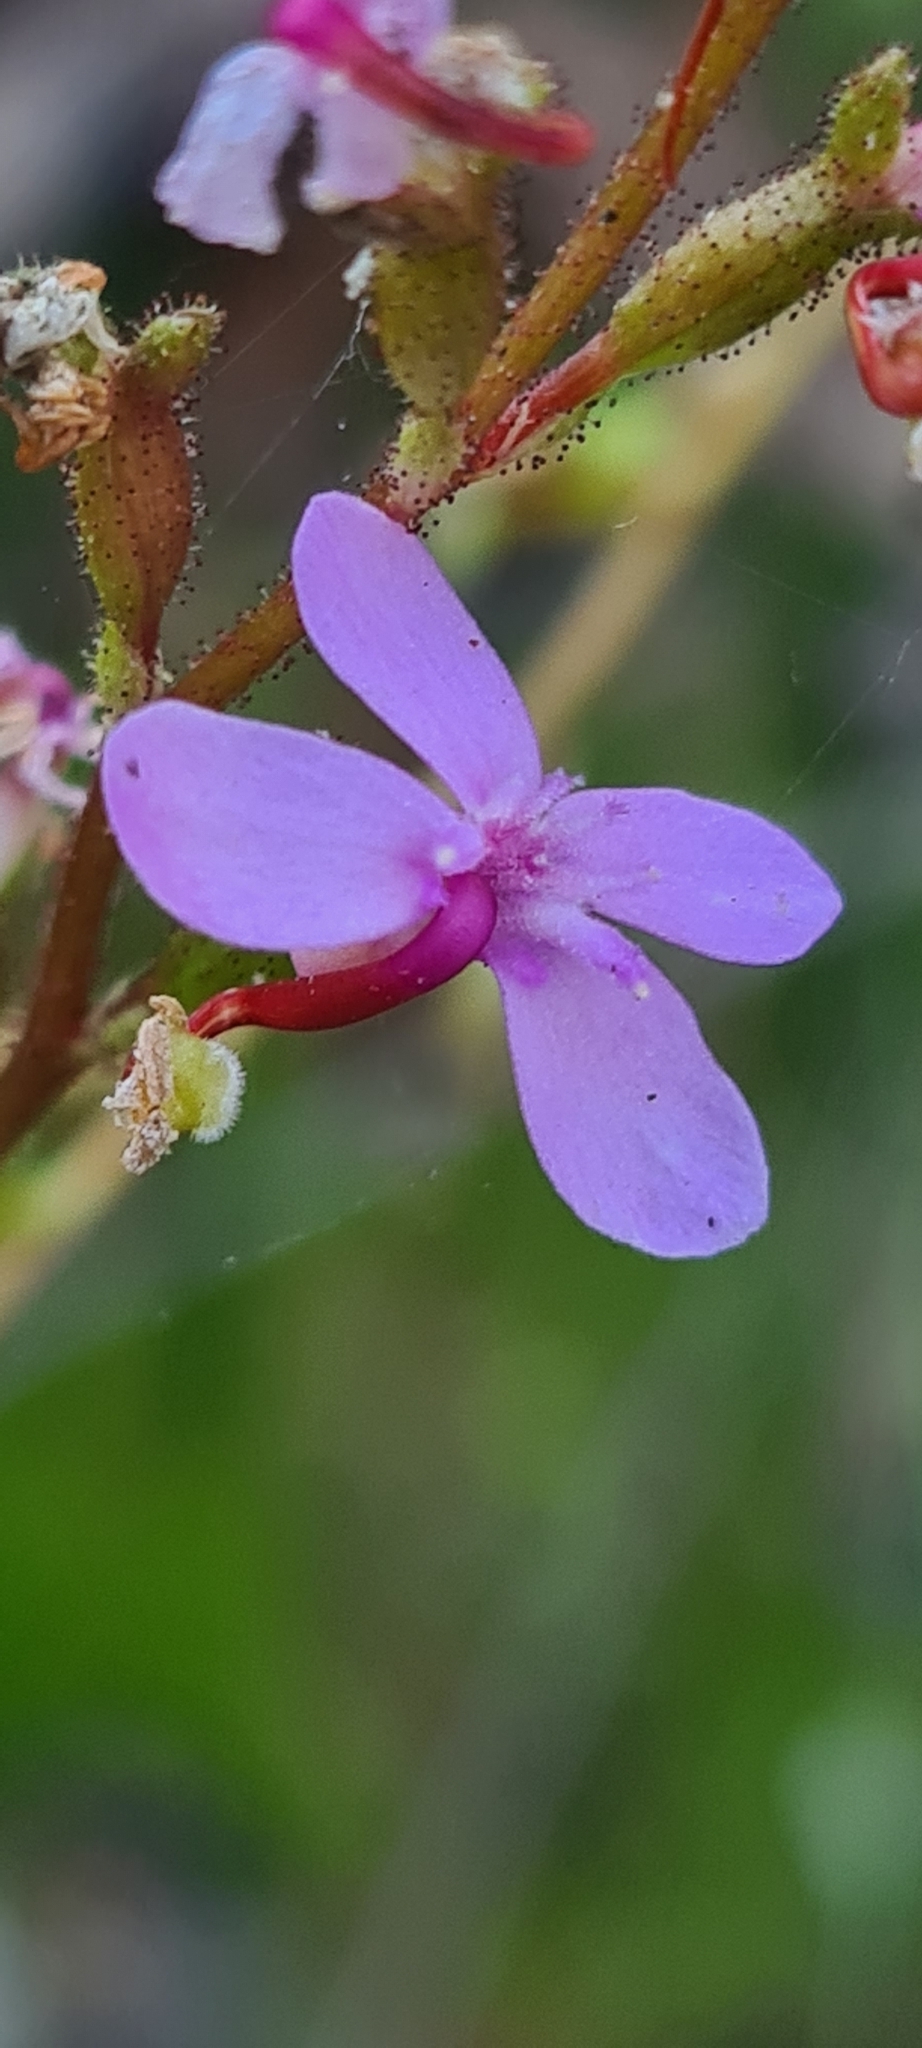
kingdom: Plantae
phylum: Tracheophyta
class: Magnoliopsida
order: Asterales
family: Stylidiaceae
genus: Stylidium
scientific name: Stylidium graminifolium
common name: Grass triggerplant
